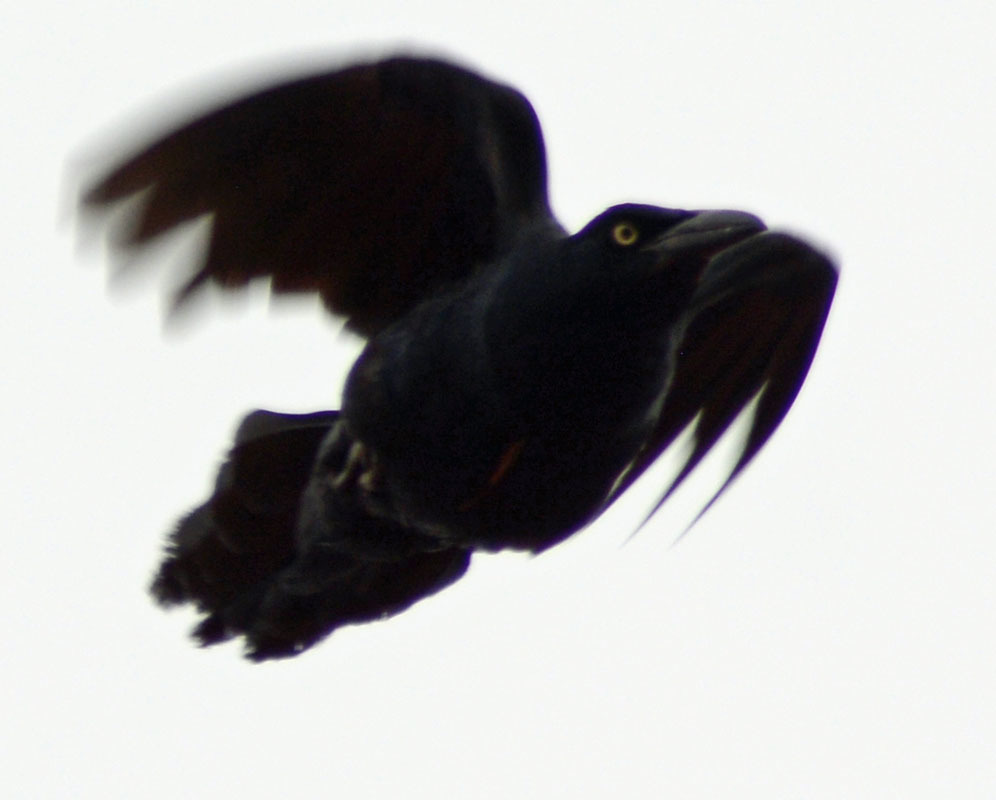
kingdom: Animalia
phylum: Chordata
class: Aves
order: Passeriformes
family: Icteridae
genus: Quiscalus
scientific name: Quiscalus mexicanus
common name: Great-tailed grackle
